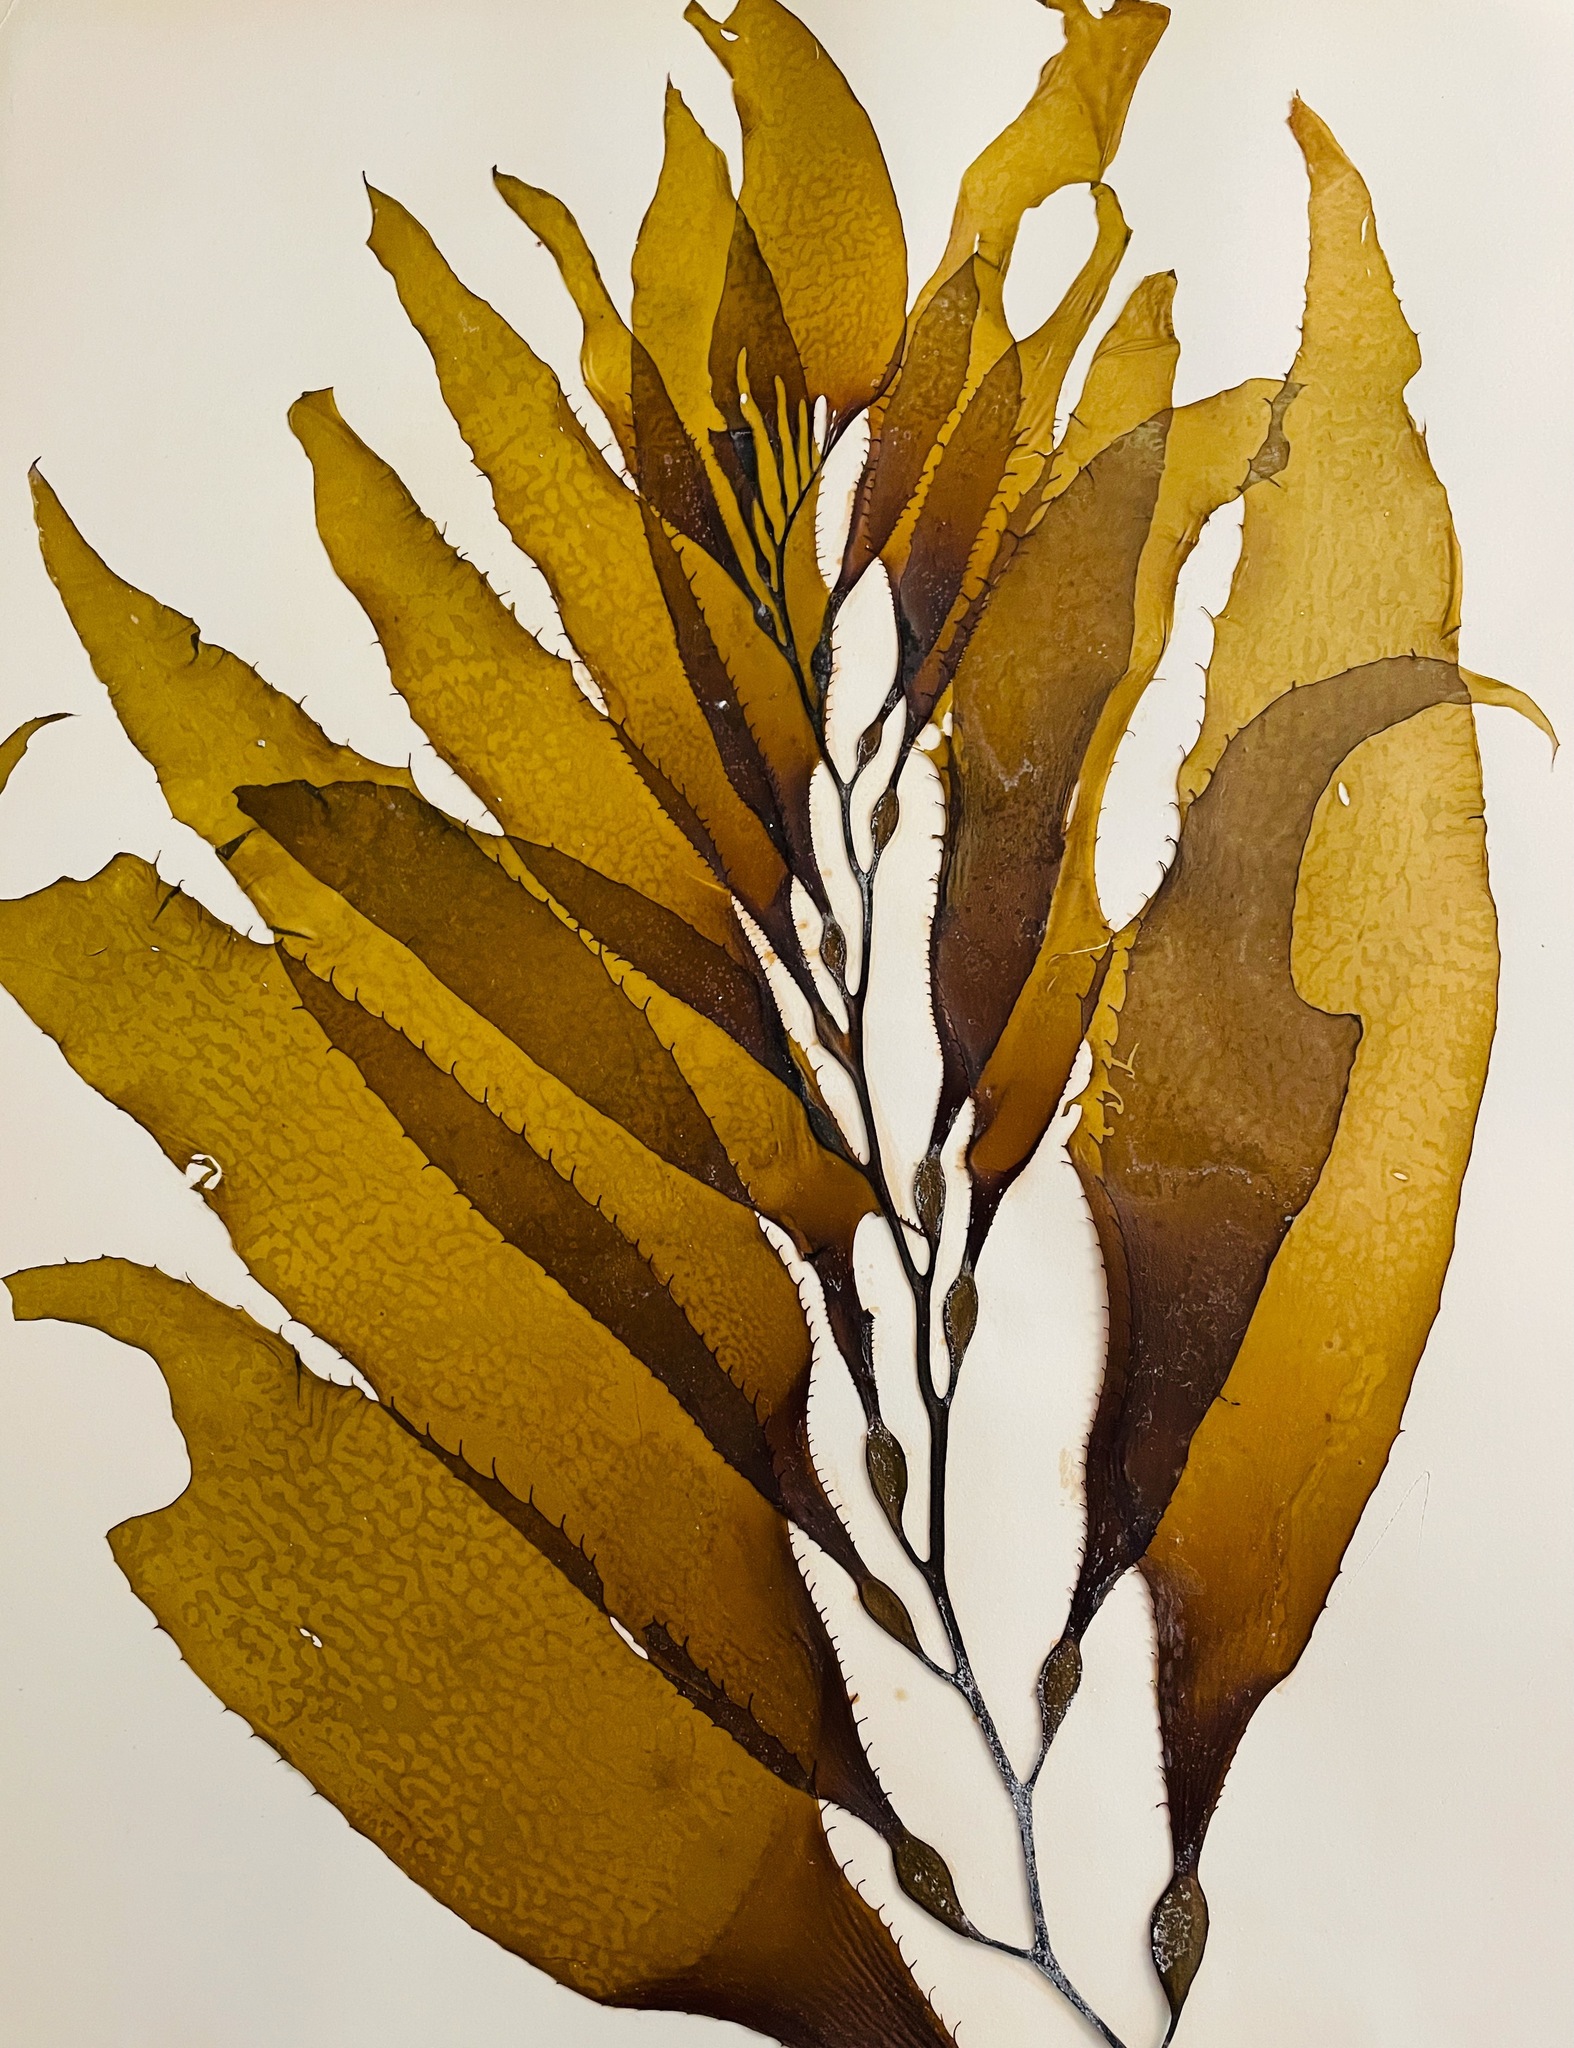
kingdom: Chromista
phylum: Ochrophyta
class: Phaeophyceae
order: Laminariales
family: Laminariaceae
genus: Macrocystis
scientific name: Macrocystis pyrifera
